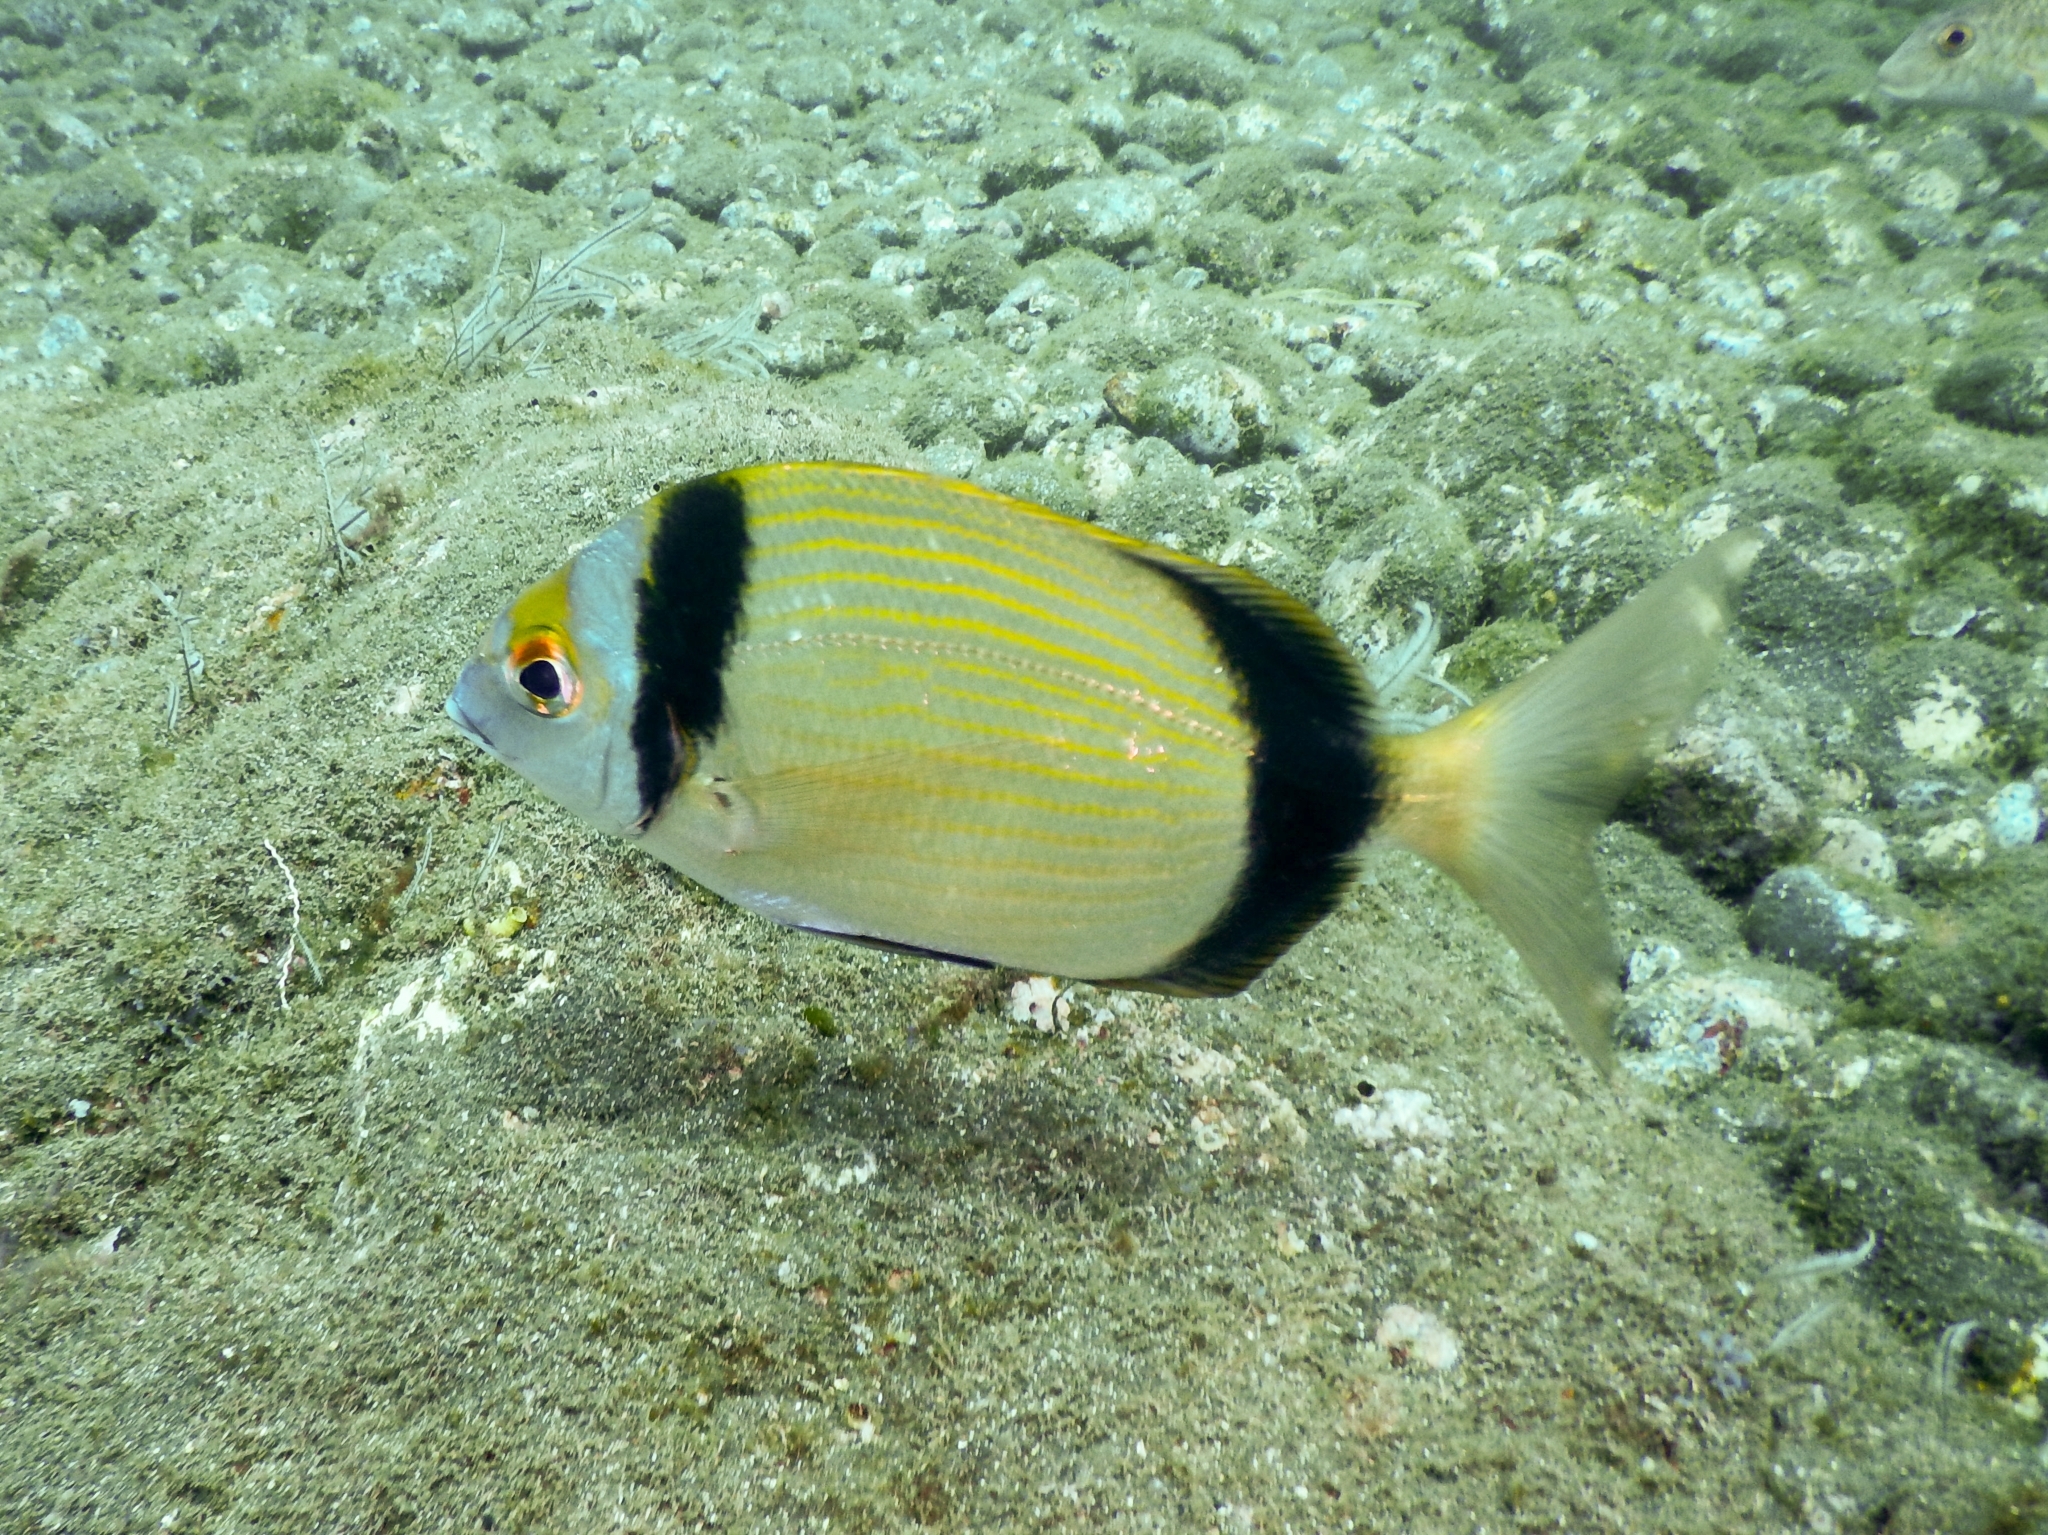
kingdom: Animalia
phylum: Chordata
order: Perciformes
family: Sparidae
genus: Diplodus
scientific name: Diplodus vulgaris
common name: Common two-banded seabream
